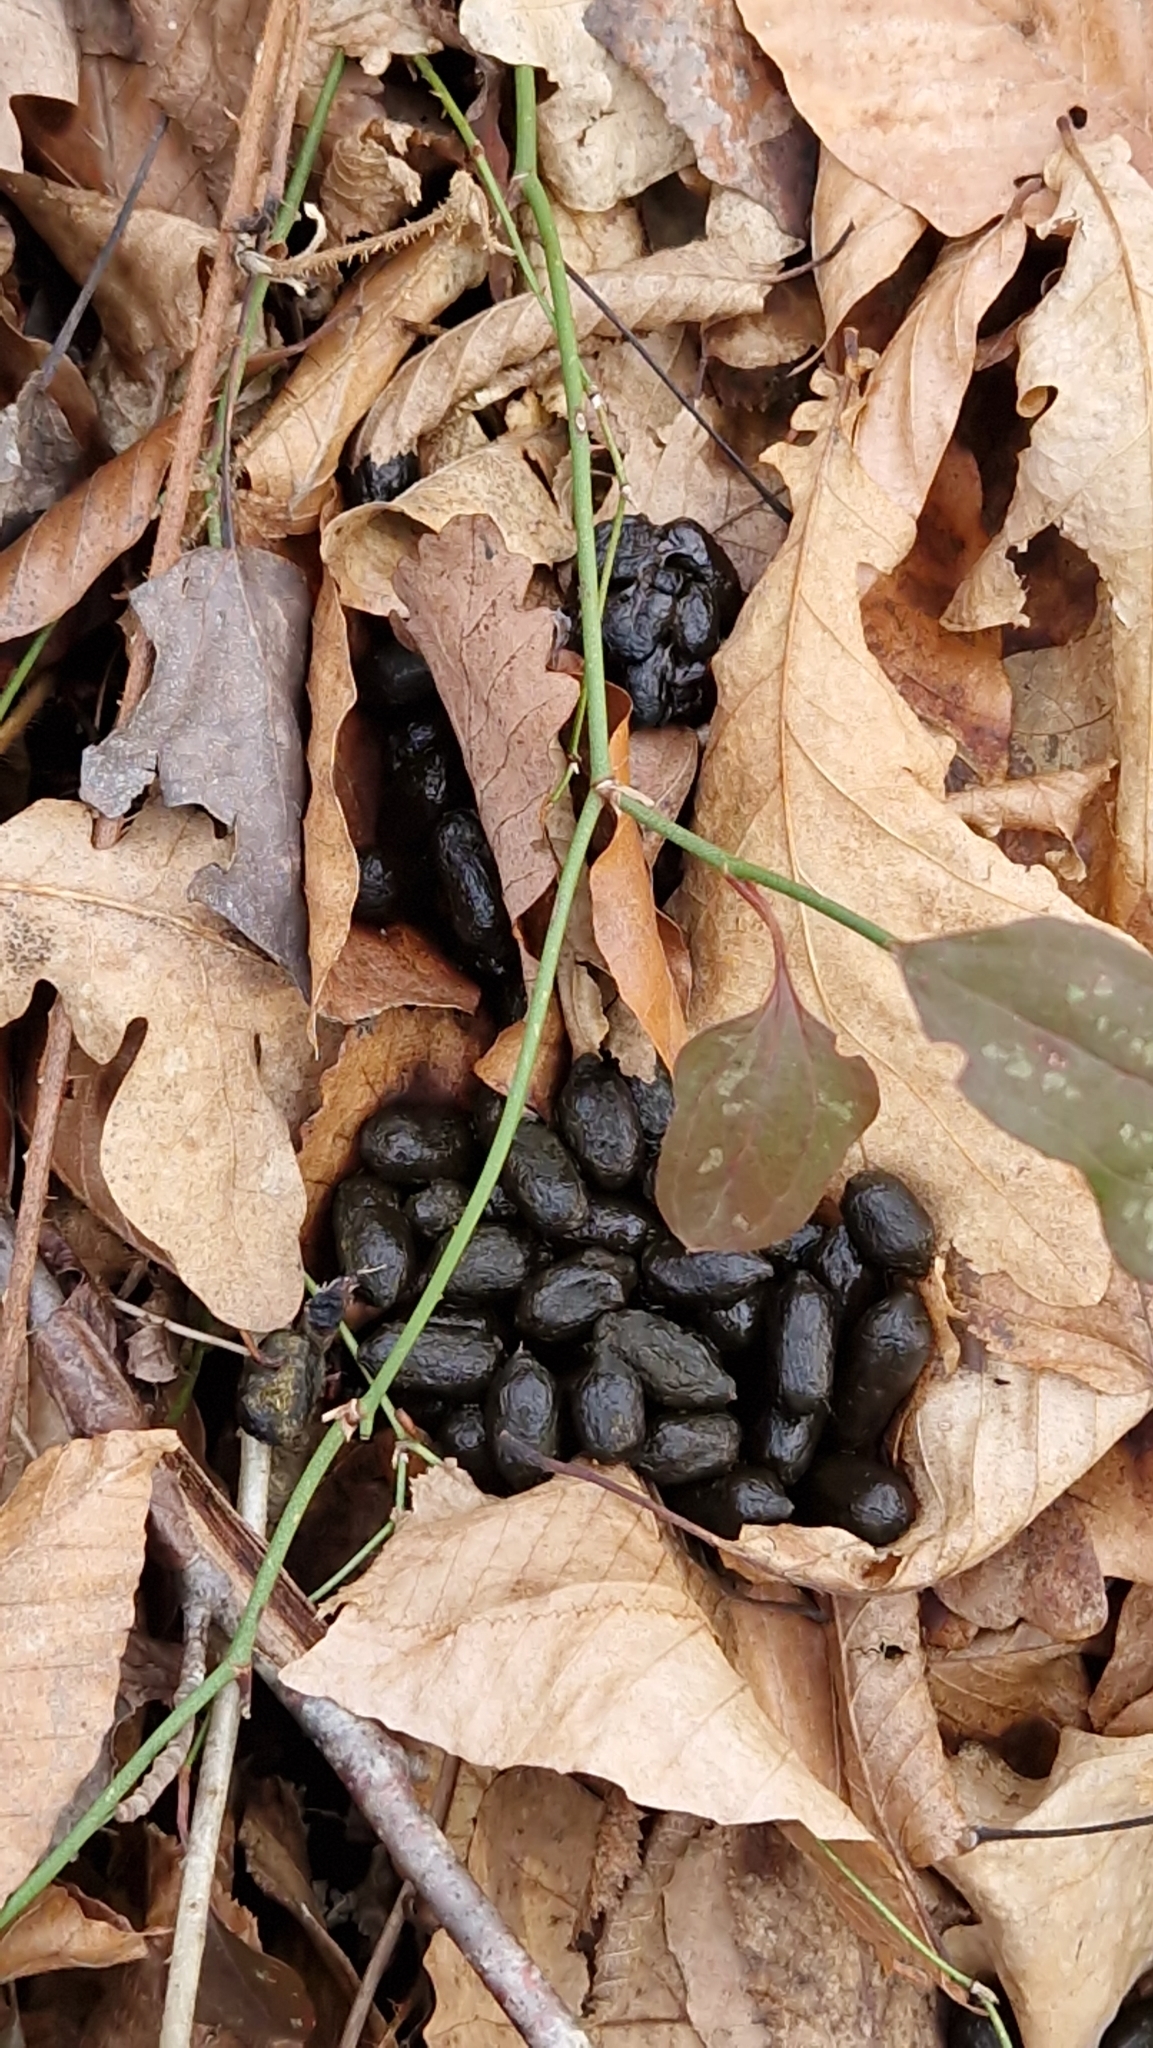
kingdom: Animalia
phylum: Chordata
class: Mammalia
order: Artiodactyla
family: Cervidae
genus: Capreolus
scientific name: Capreolus capreolus
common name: Western roe deer
